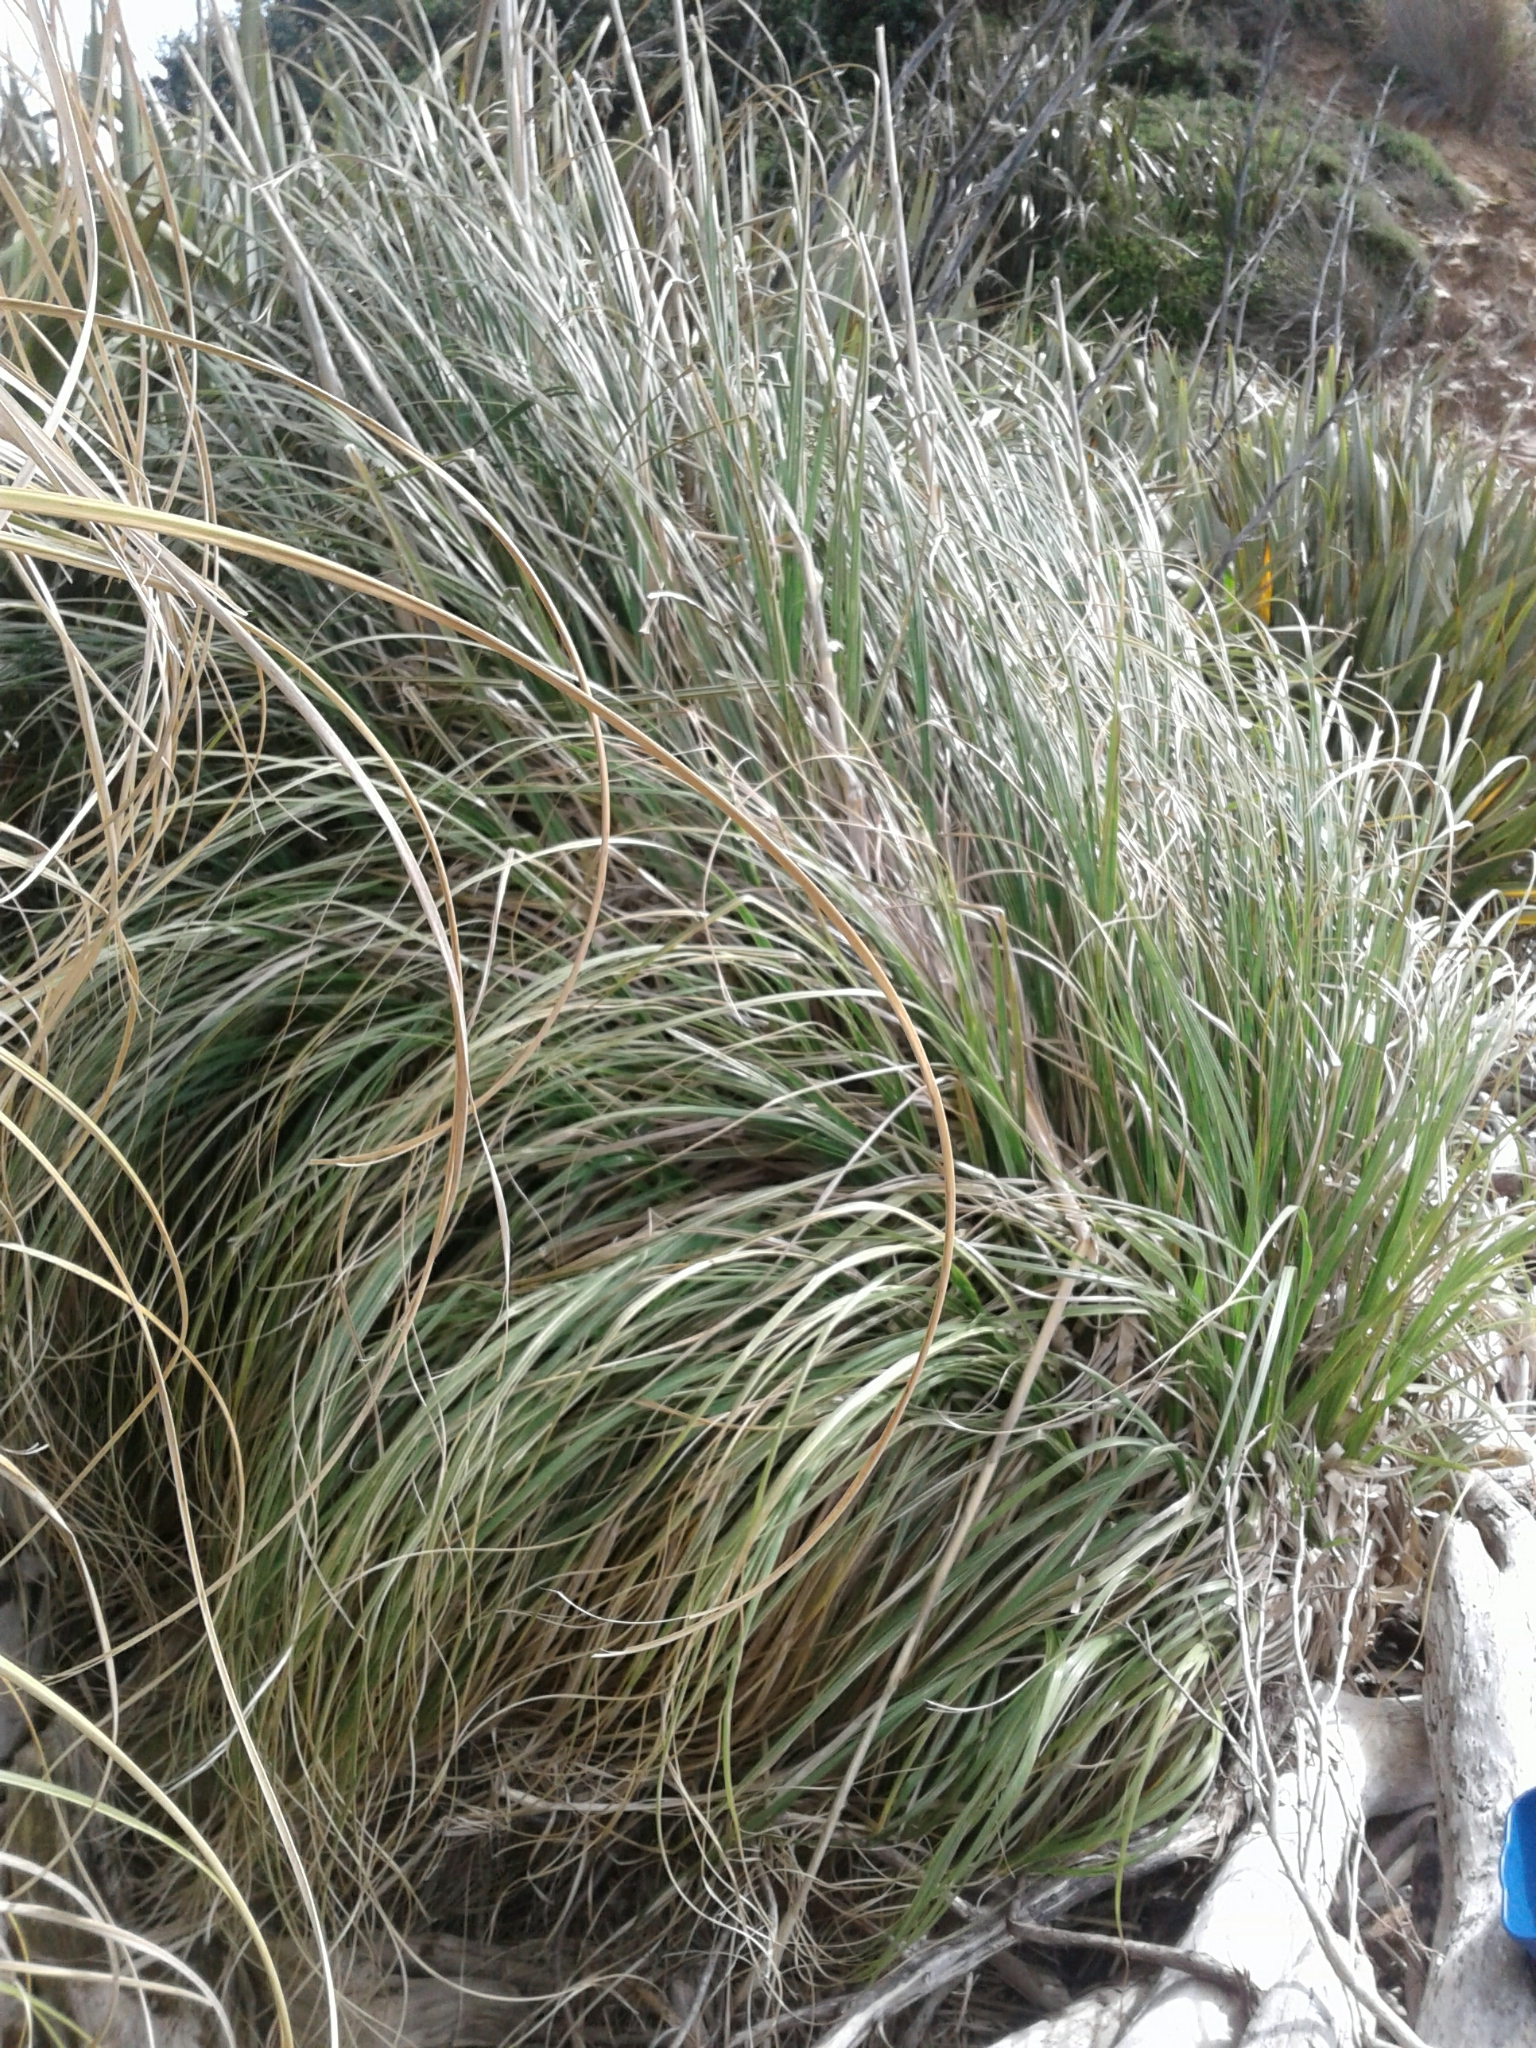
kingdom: Plantae
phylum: Tracheophyta
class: Liliopsida
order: Poales
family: Poaceae
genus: Austroderia
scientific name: Austroderia richardii
